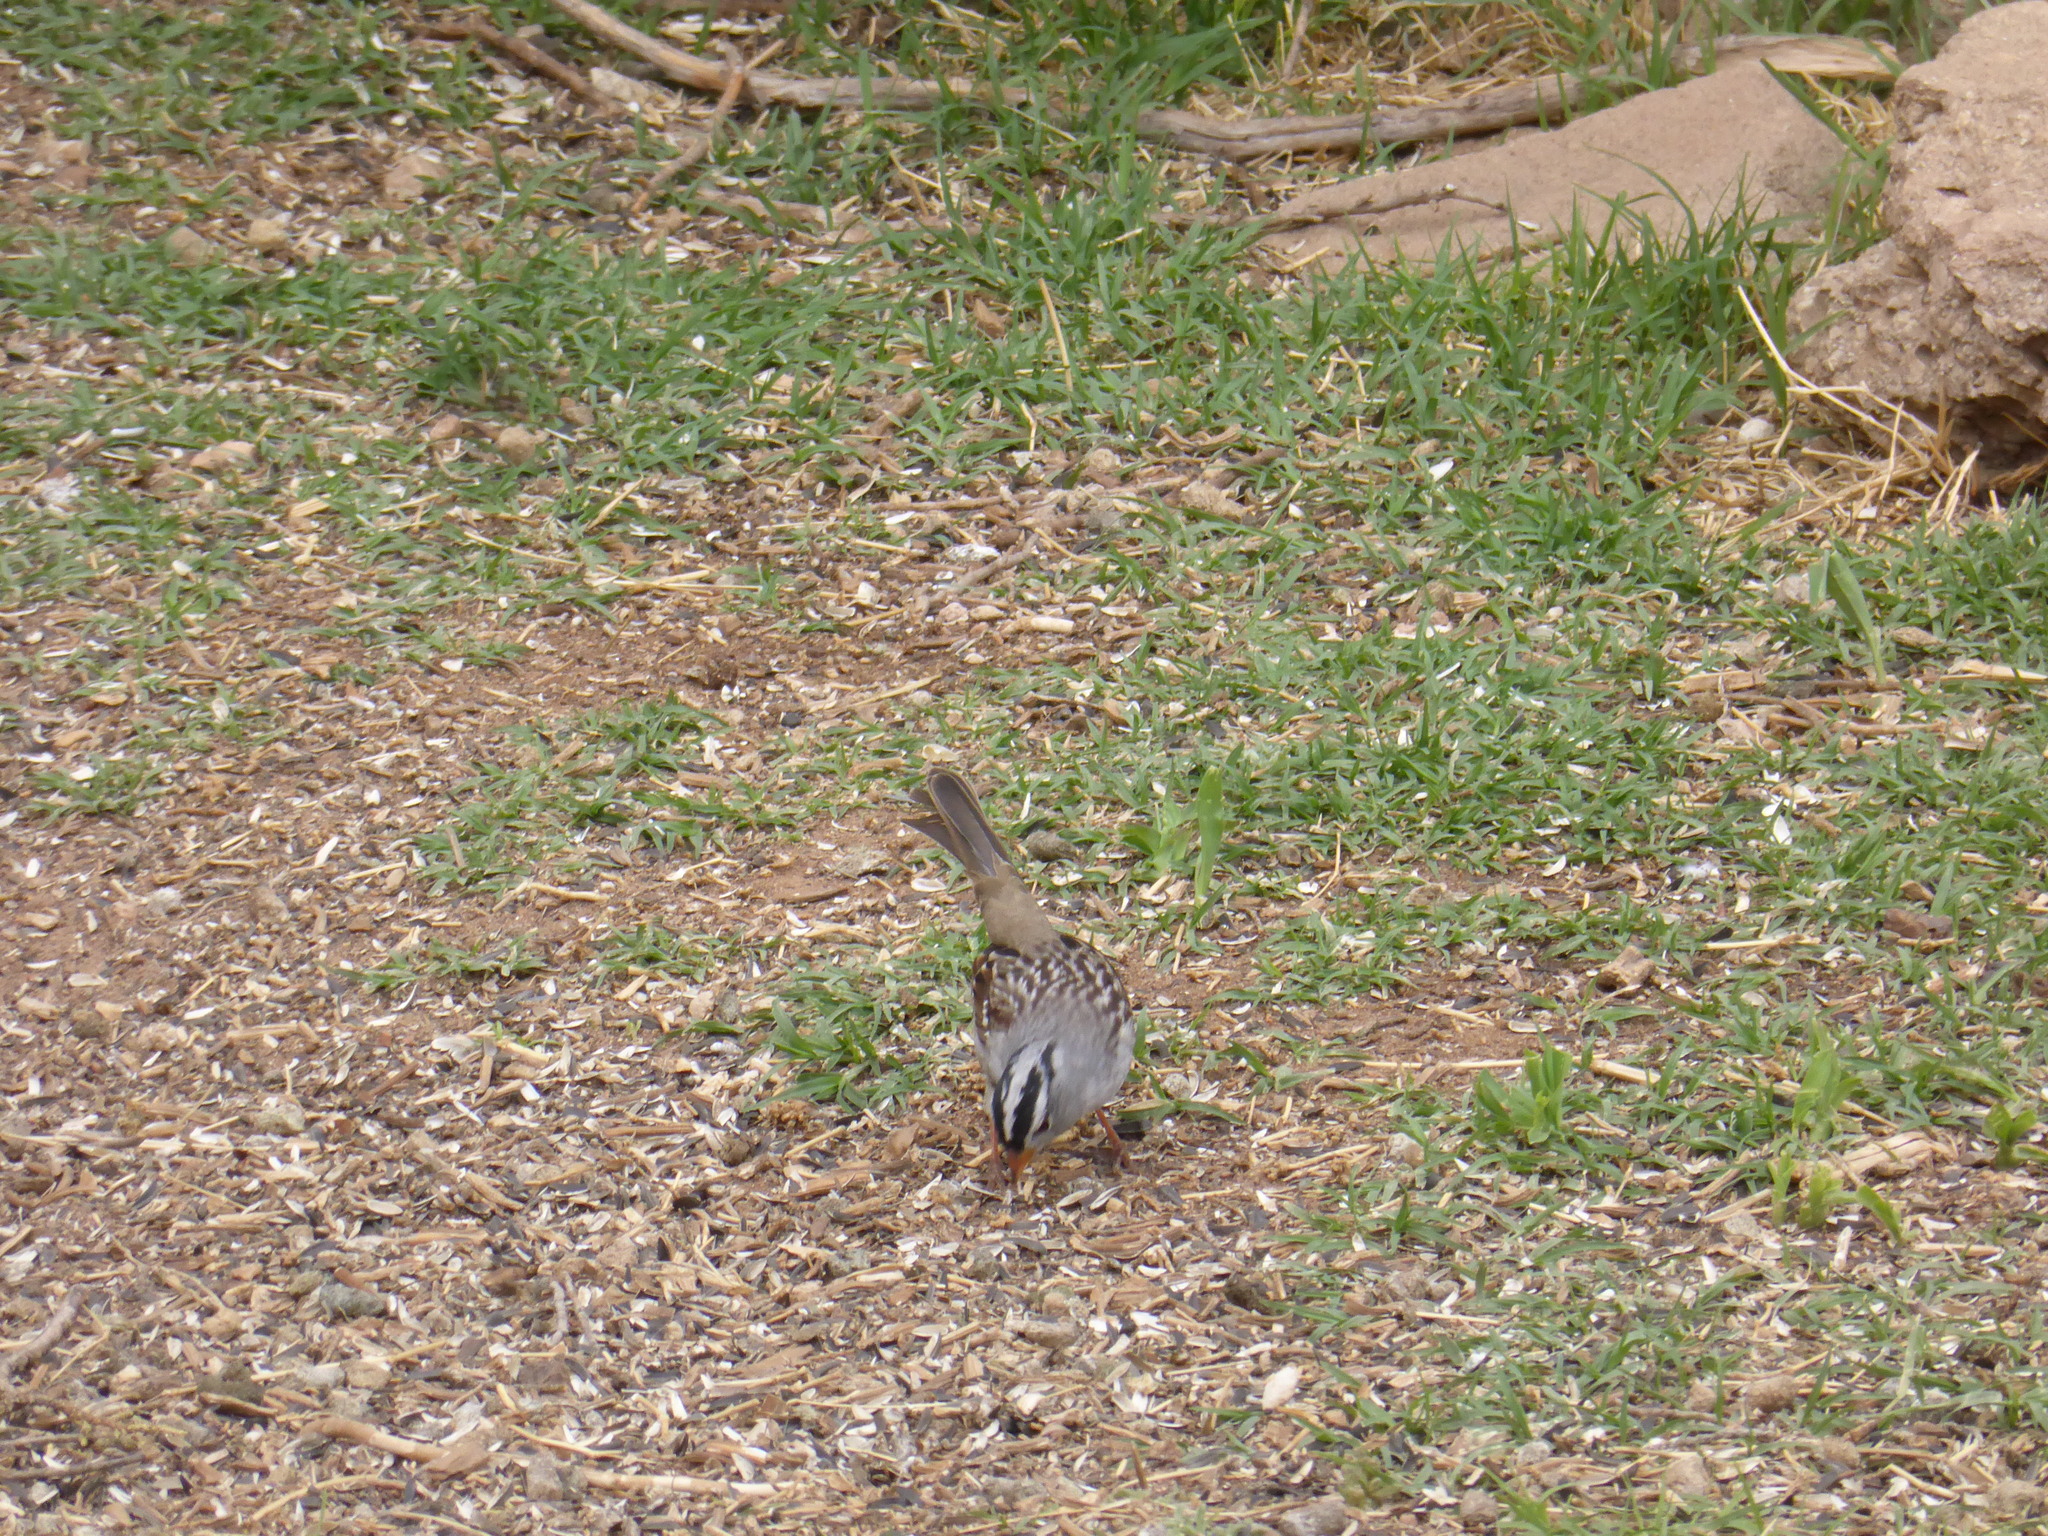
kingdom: Animalia
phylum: Chordata
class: Aves
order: Passeriformes
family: Passerellidae
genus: Zonotrichia
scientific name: Zonotrichia leucophrys
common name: White-crowned sparrow
